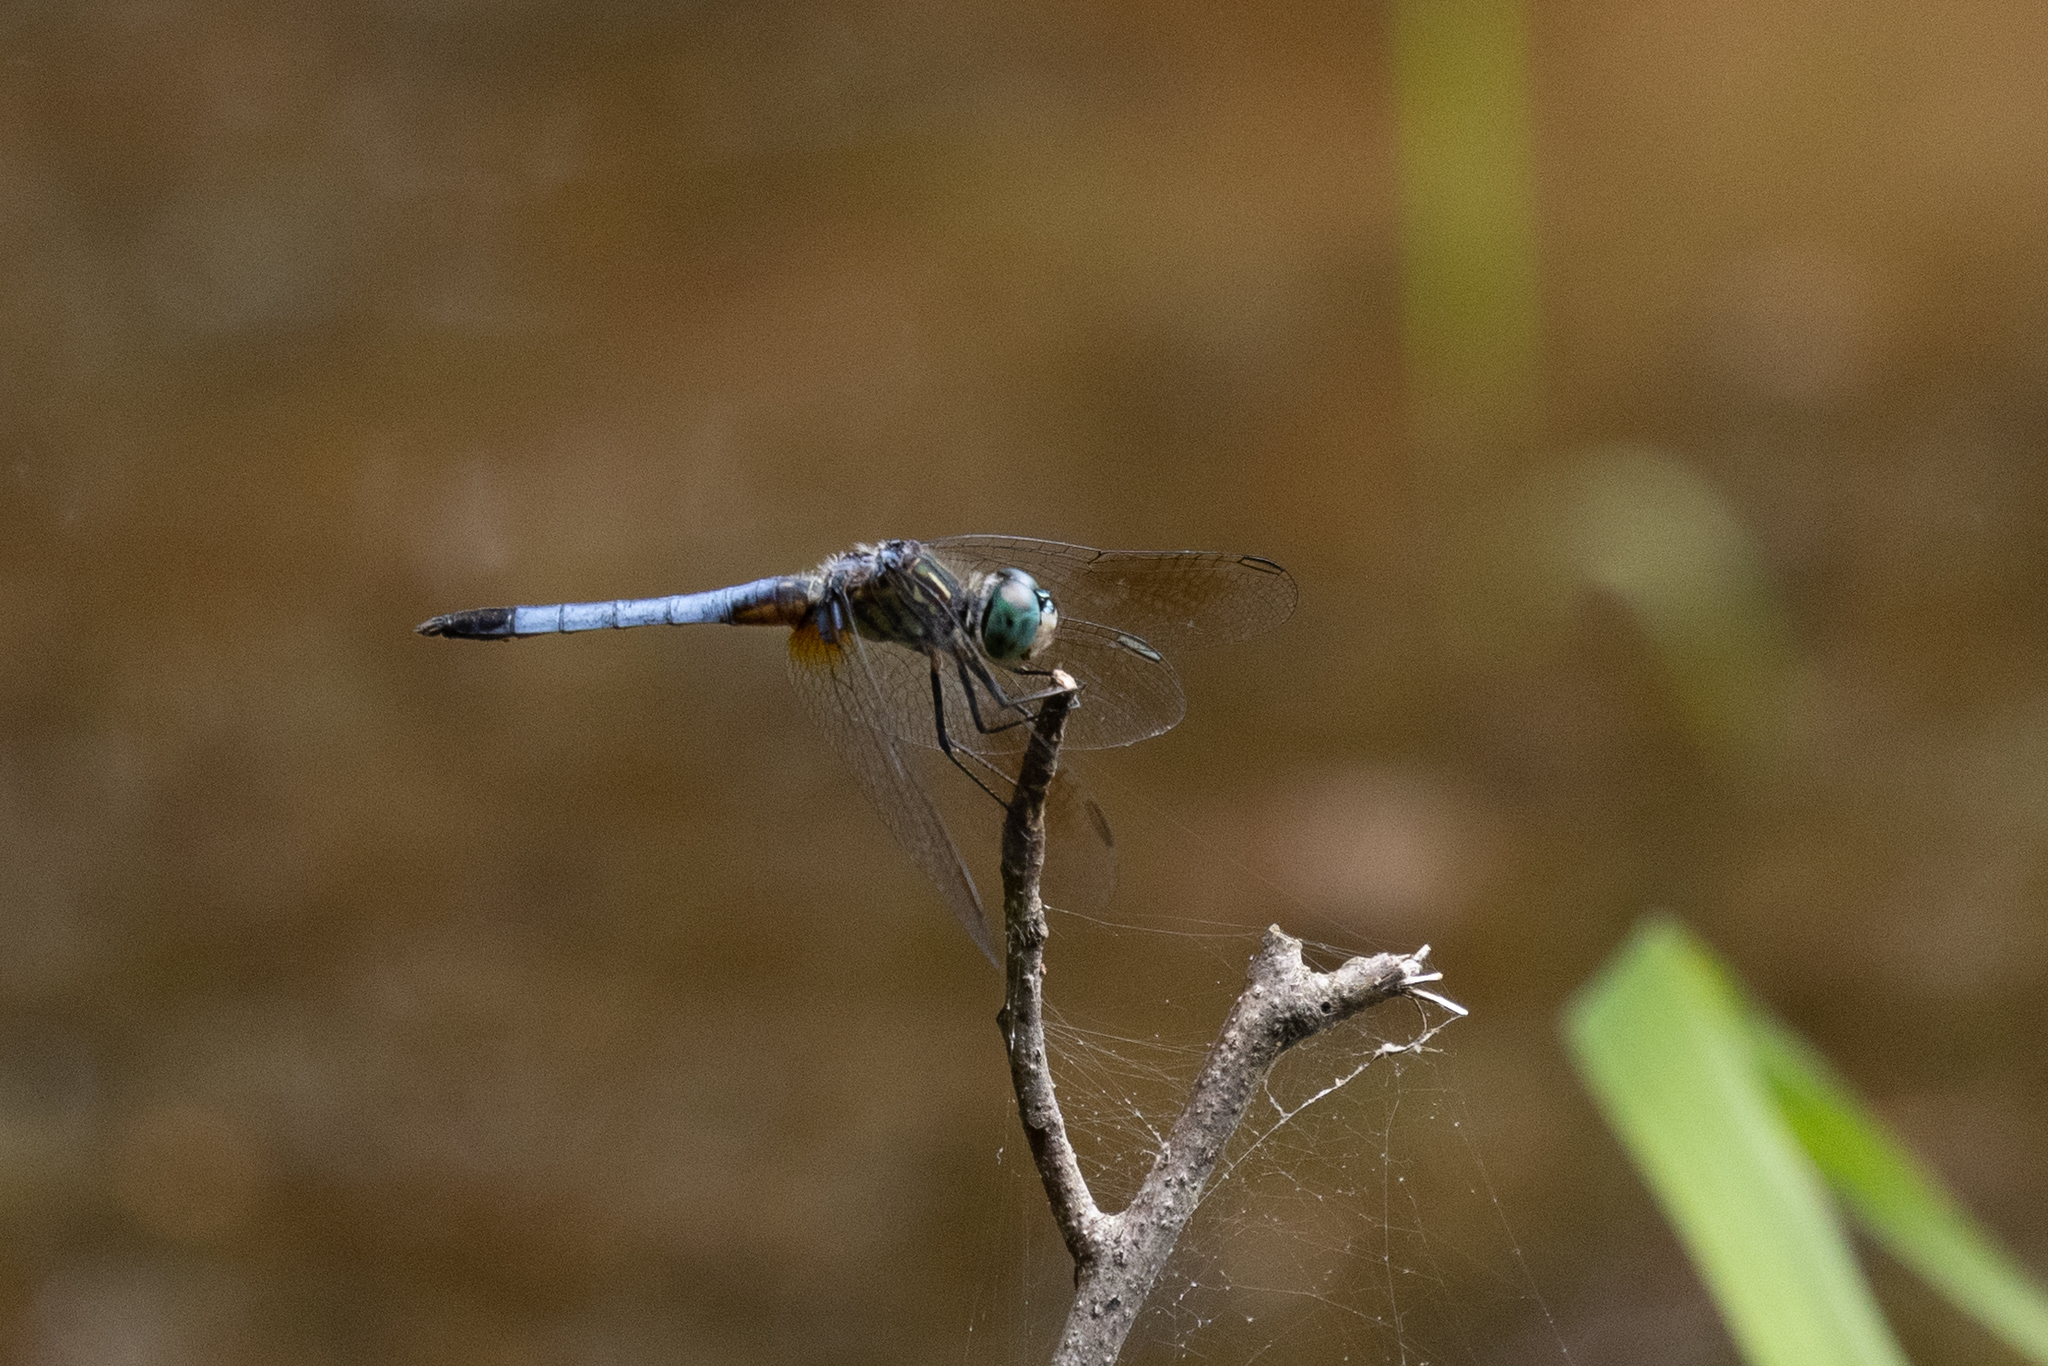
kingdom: Animalia
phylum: Arthropoda
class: Insecta
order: Odonata
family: Libellulidae
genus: Pachydiplax
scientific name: Pachydiplax longipennis
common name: Blue dasher
